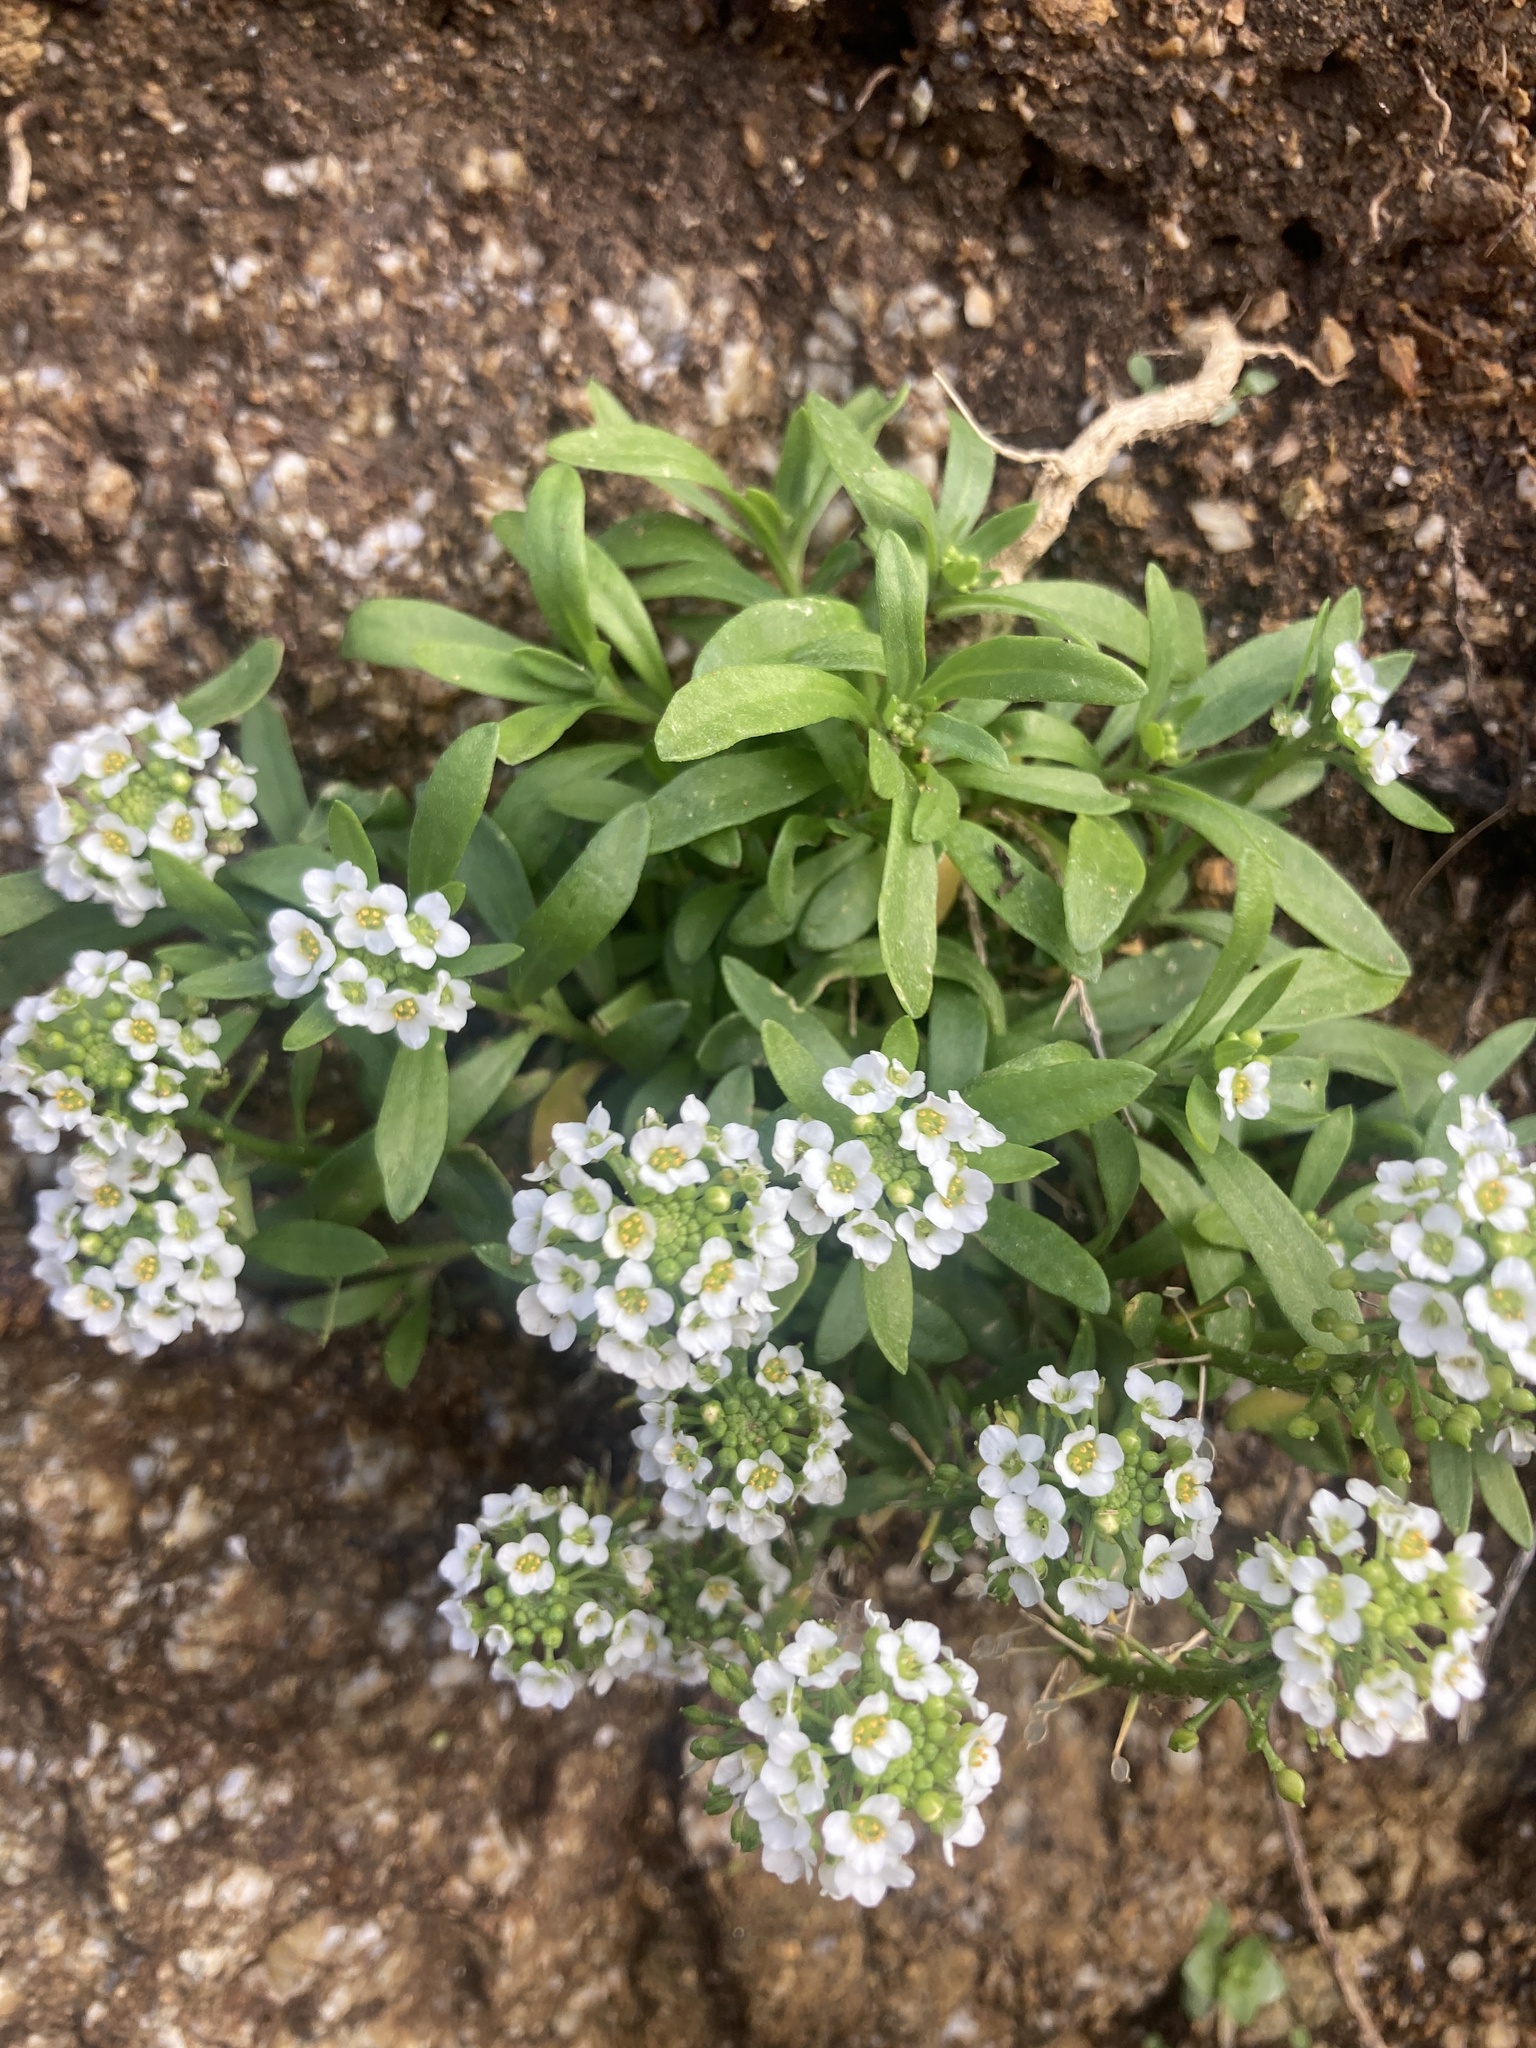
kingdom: Plantae
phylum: Tracheophyta
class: Magnoliopsida
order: Brassicales
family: Brassicaceae
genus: Lobularia
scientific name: Lobularia maritima
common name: Sweet alison
